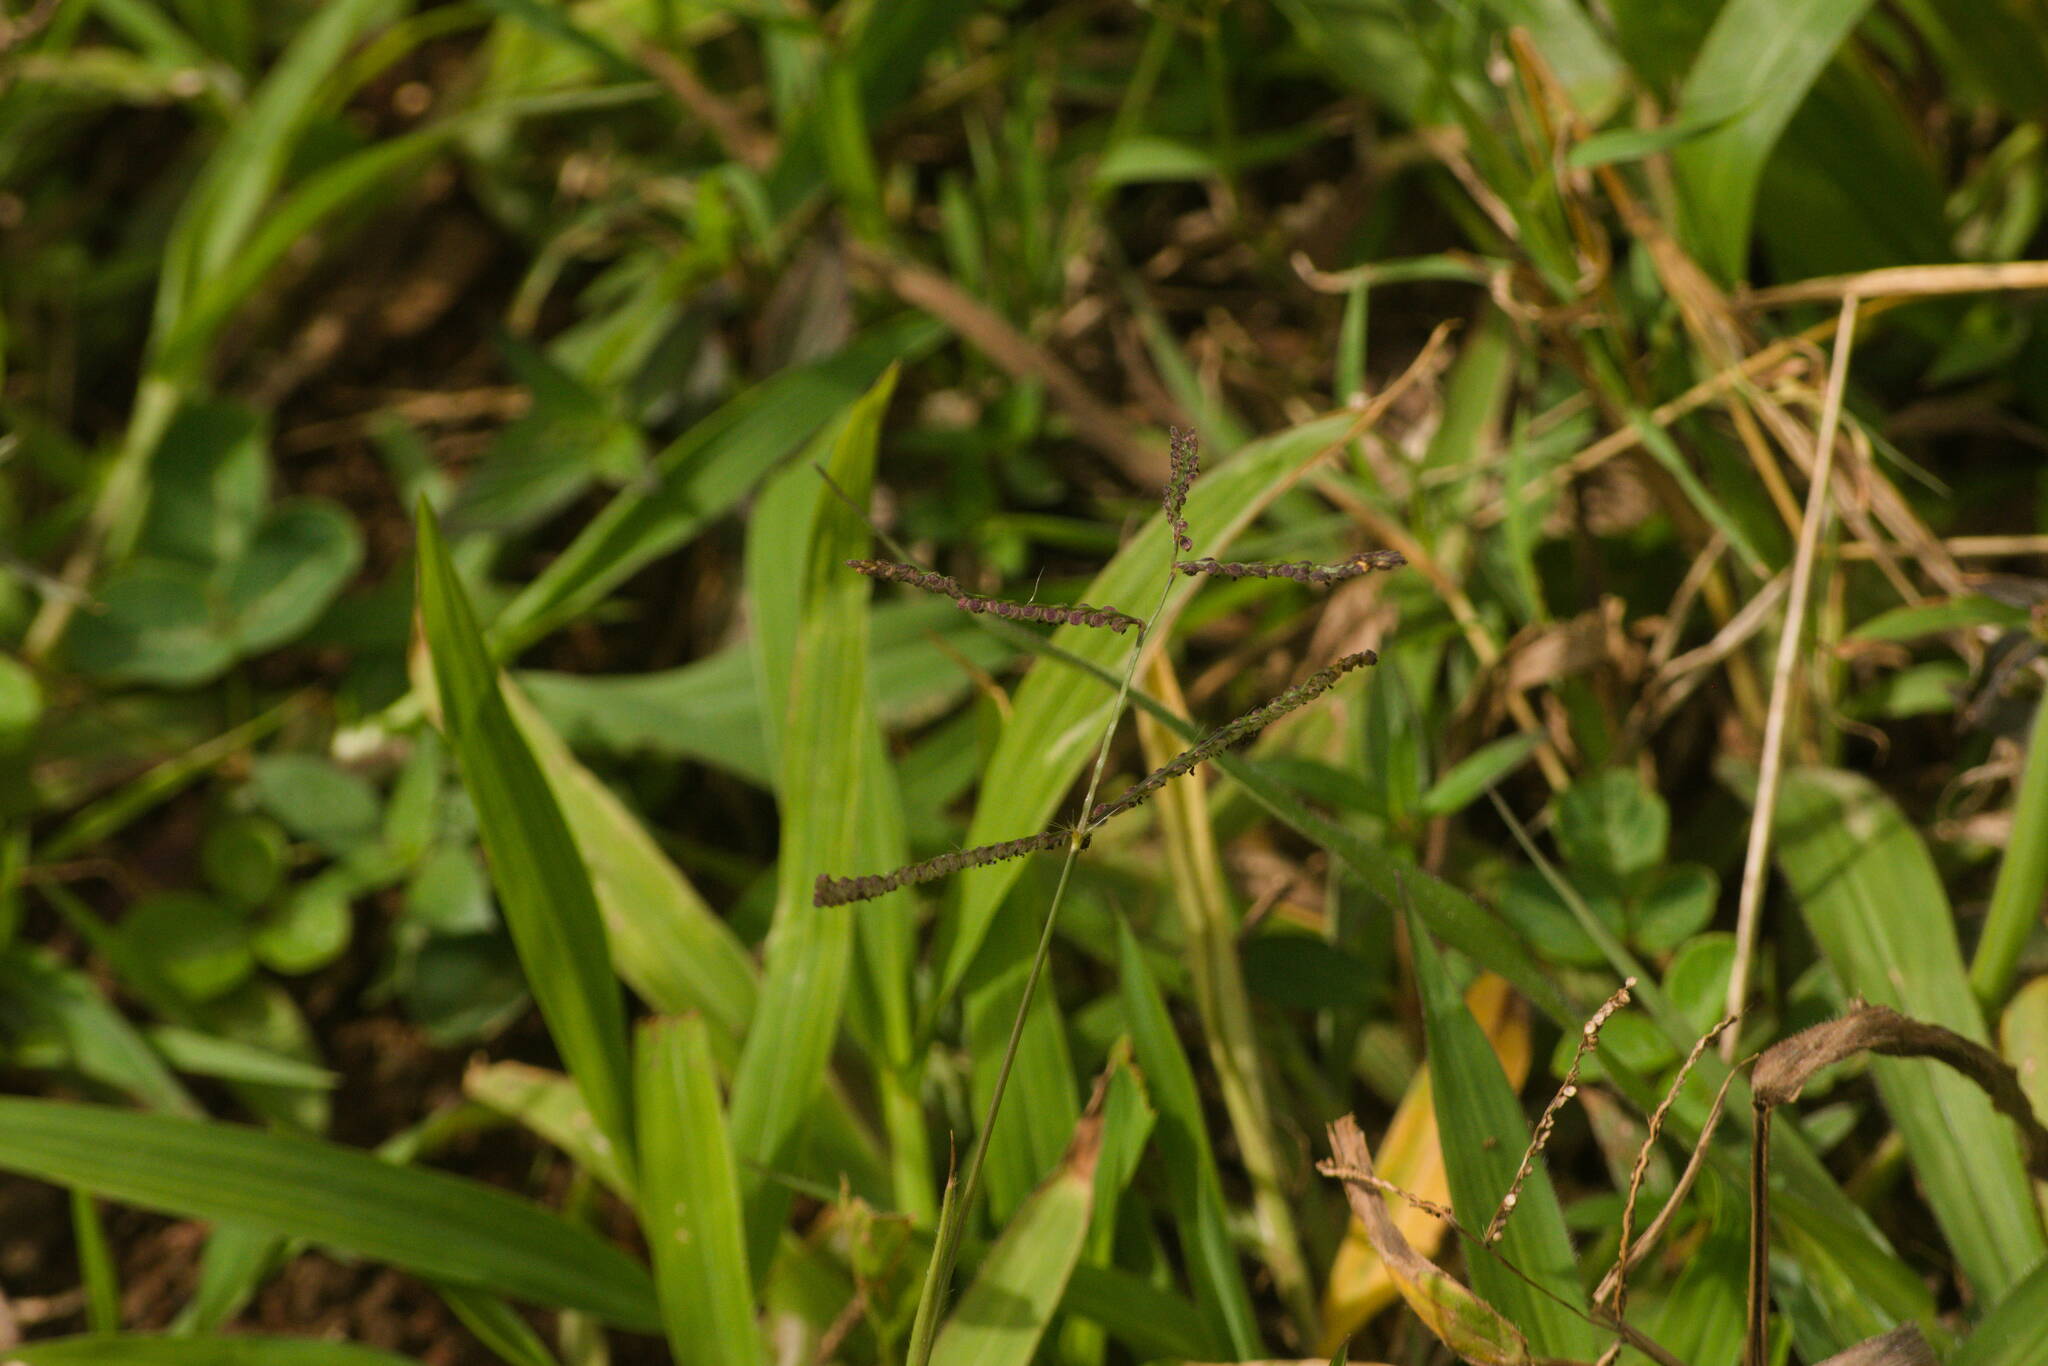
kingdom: Plantae
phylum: Tracheophyta
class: Liliopsida
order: Poales
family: Poaceae
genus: Paspalum
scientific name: Paspalum paniculatum
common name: Arrocillo
